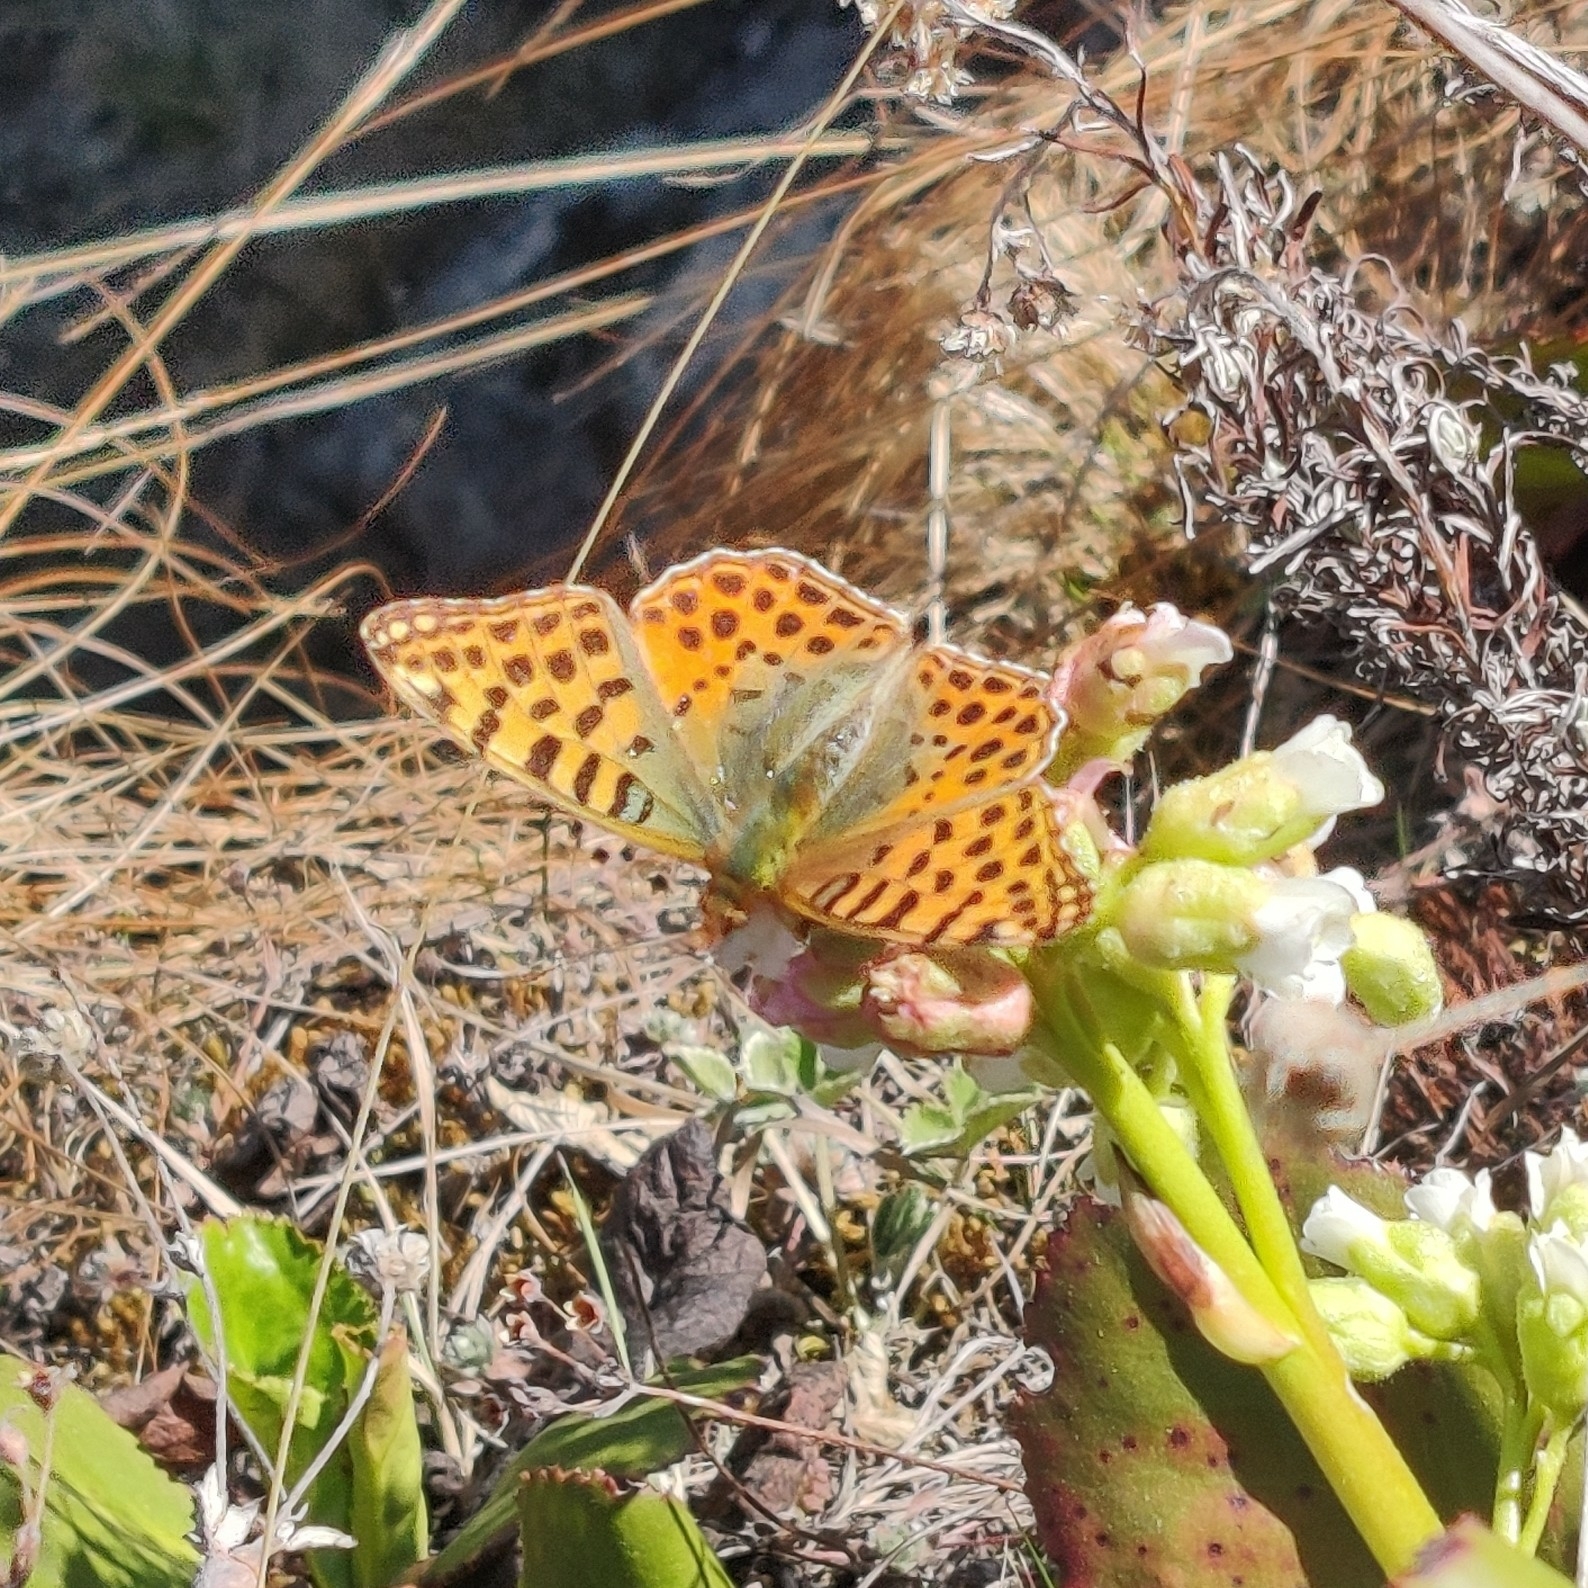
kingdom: Animalia
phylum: Arthropoda
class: Insecta
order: Lepidoptera
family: Nymphalidae
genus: Issoria
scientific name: Issoria
